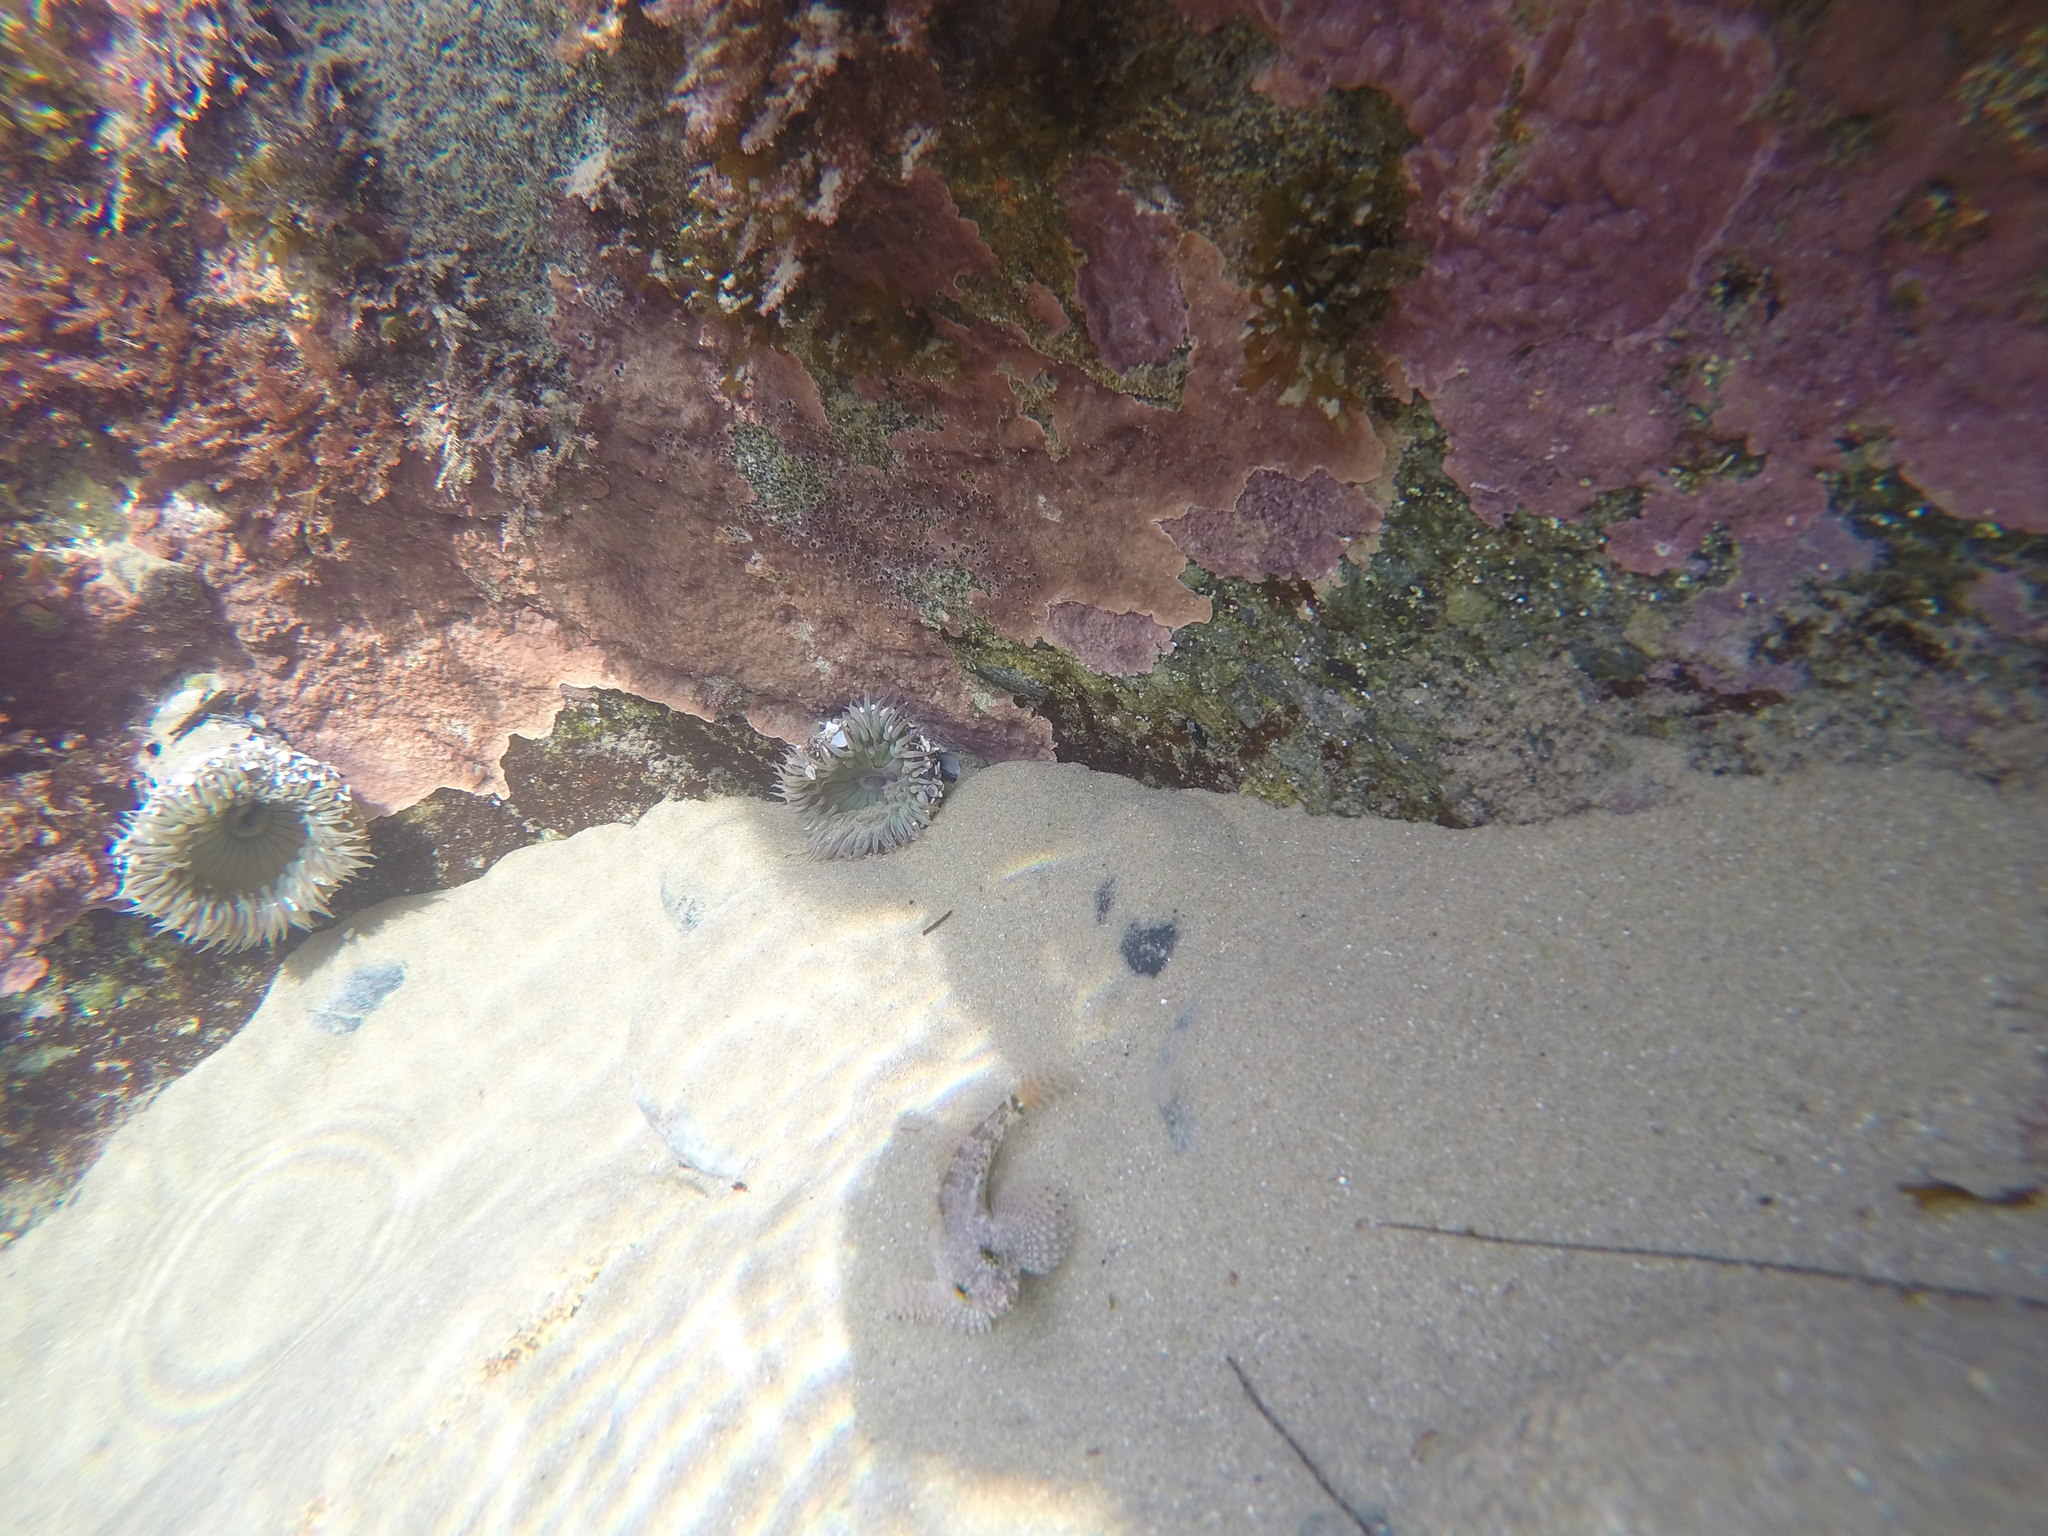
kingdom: Animalia
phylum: Cnidaria
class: Anthozoa
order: Actiniaria
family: Actiniidae
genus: Anthopleura
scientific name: Anthopleura sola
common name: Sun anemone
